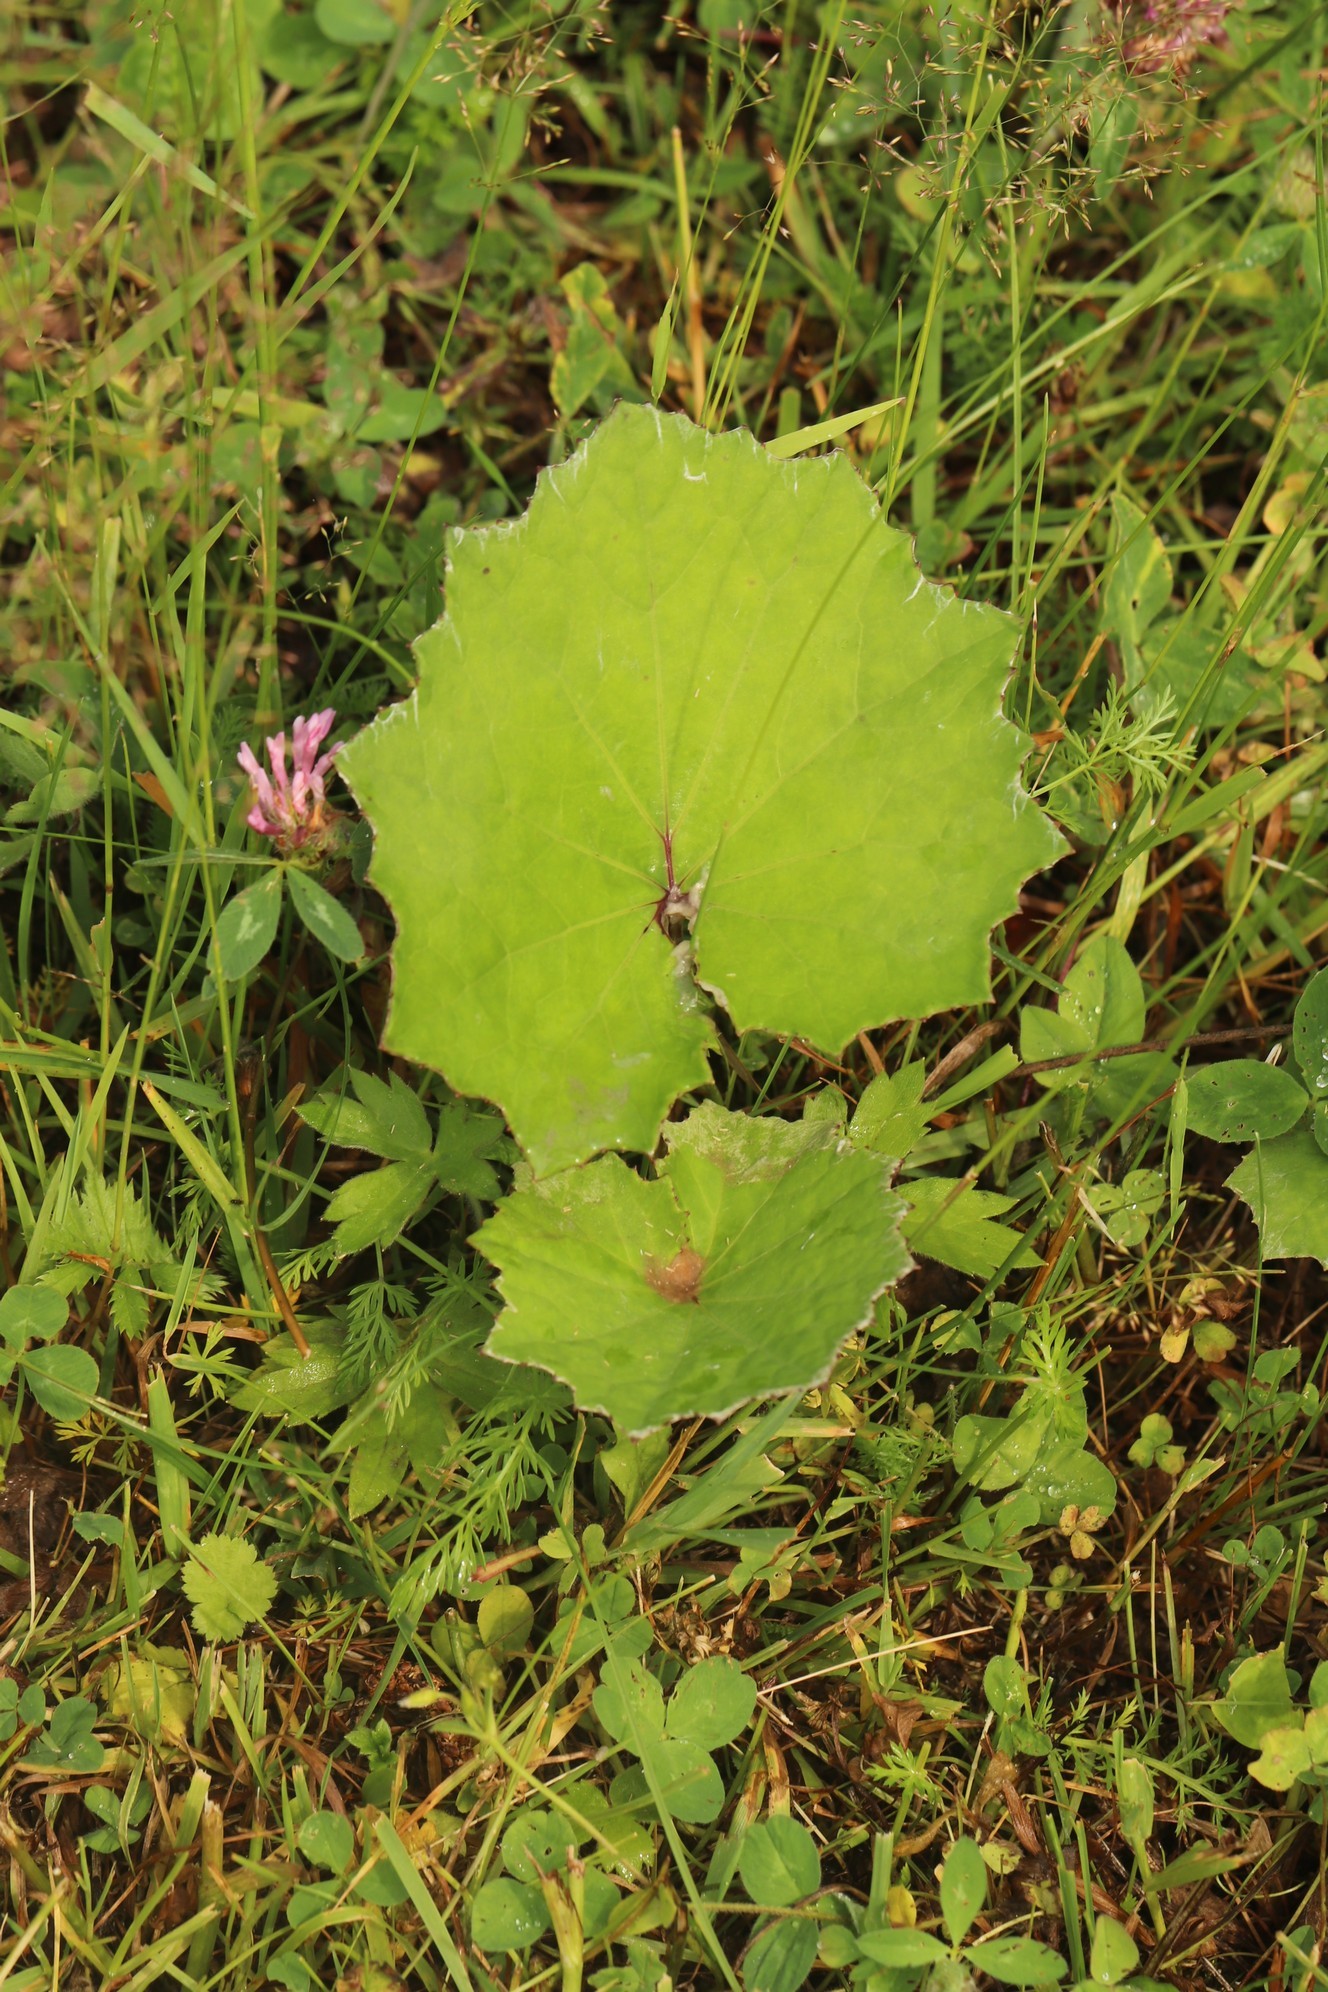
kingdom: Plantae
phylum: Tracheophyta
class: Magnoliopsida
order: Asterales
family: Asteraceae
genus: Tussilago
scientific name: Tussilago farfara
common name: Coltsfoot
